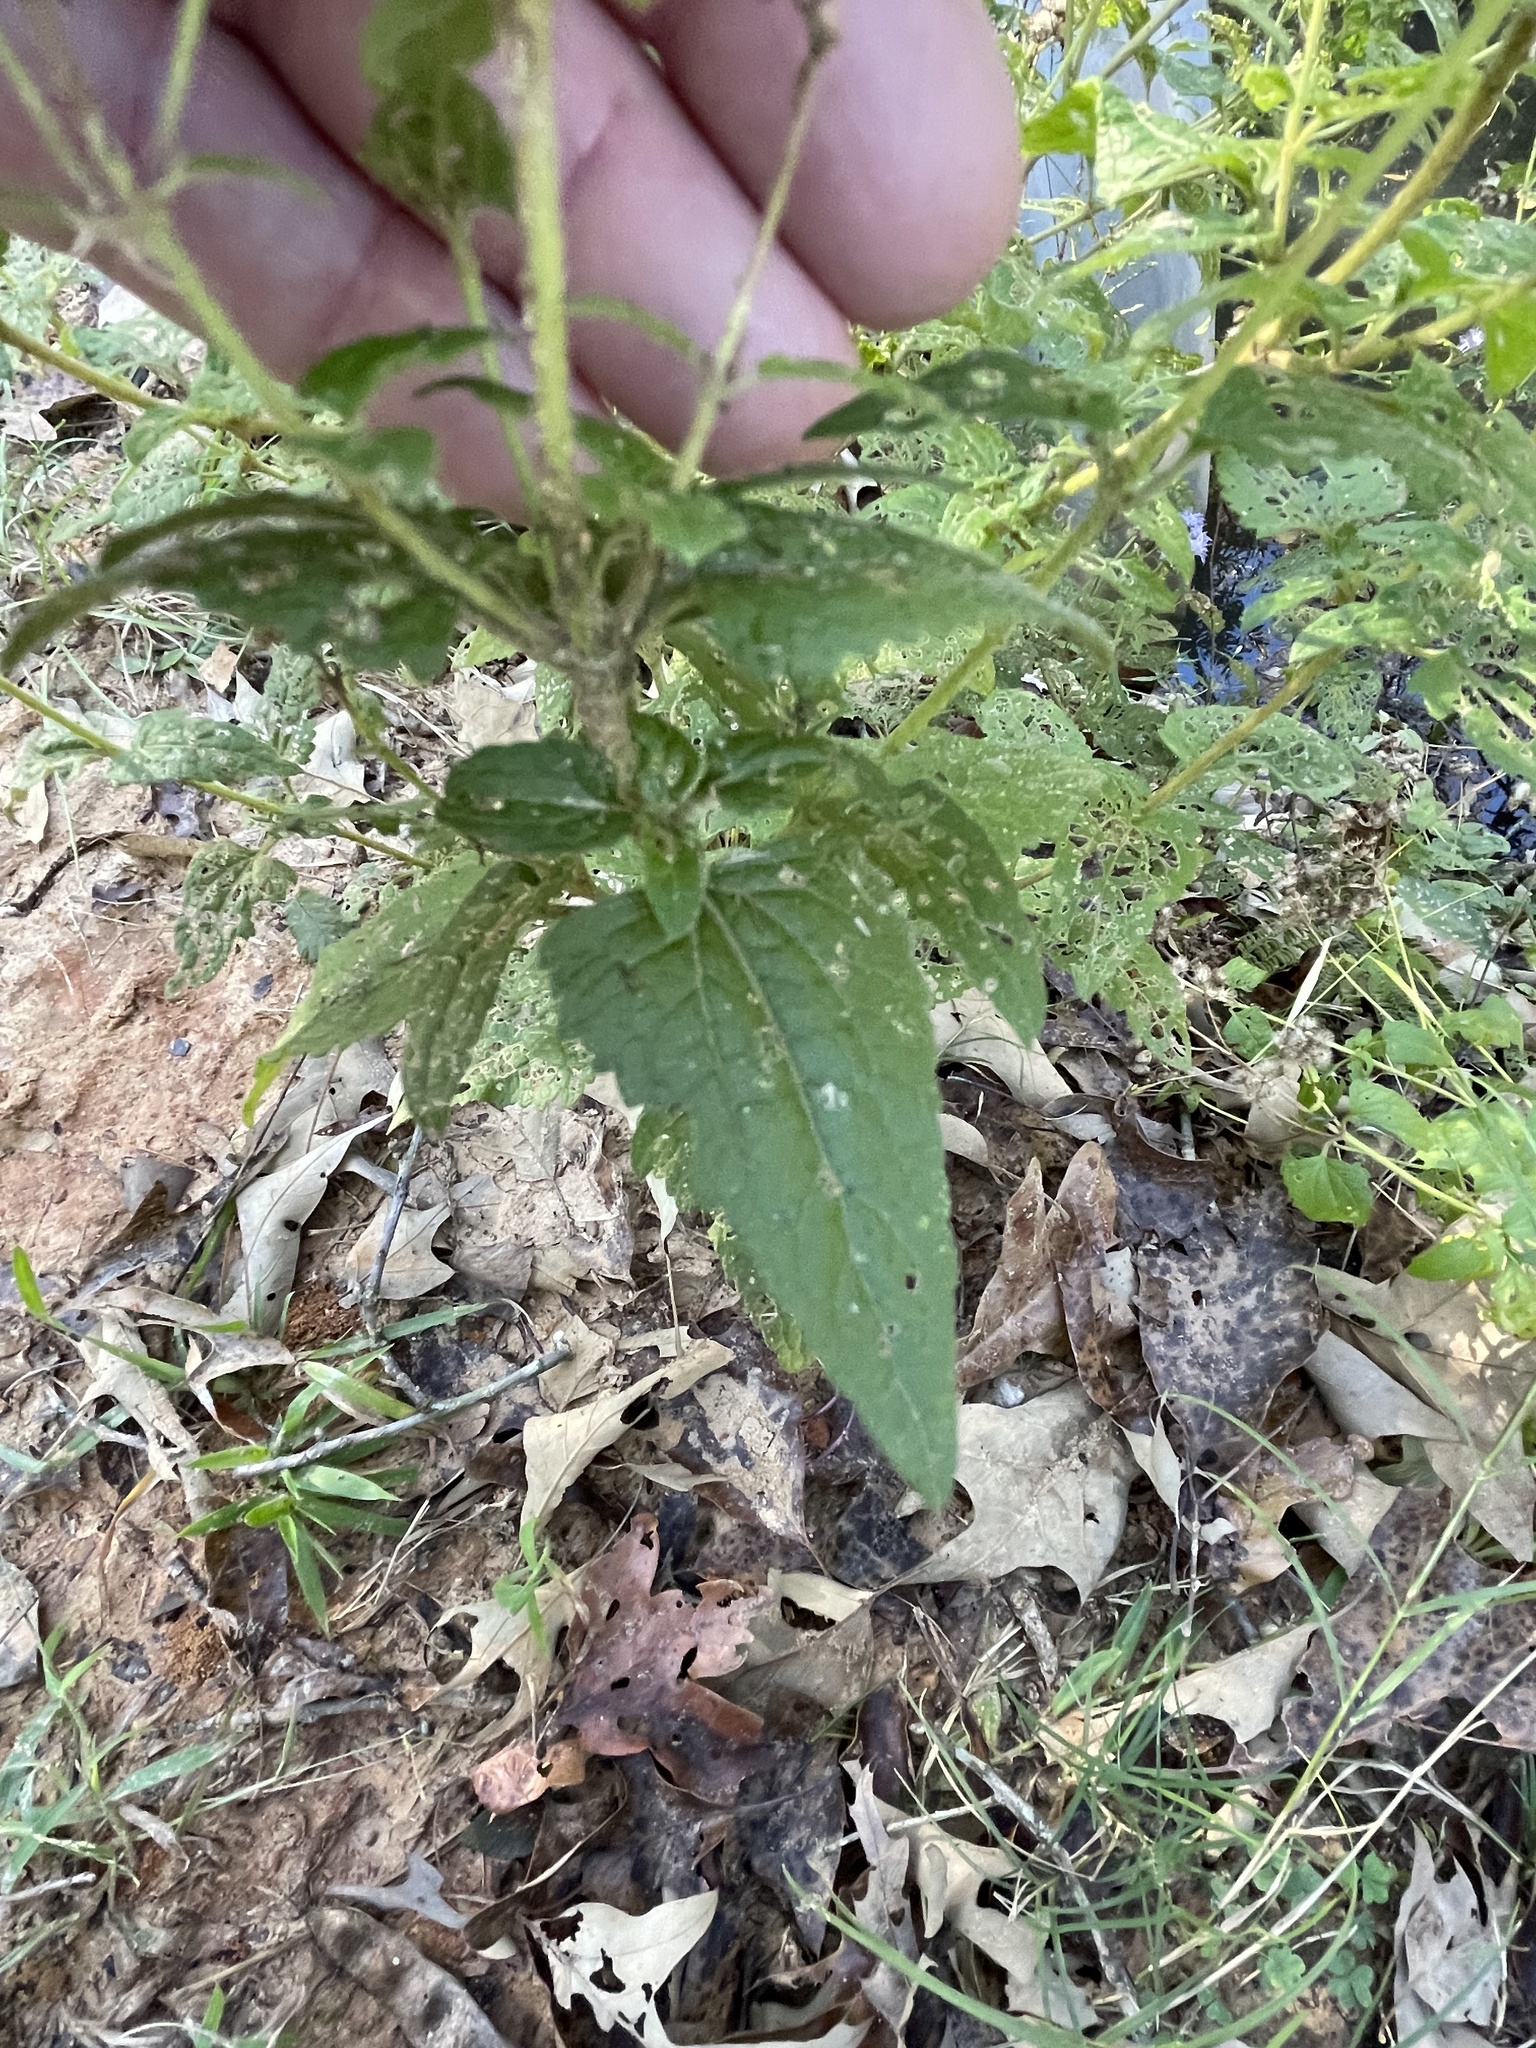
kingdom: Plantae
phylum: Tracheophyta
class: Magnoliopsida
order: Asterales
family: Asteraceae
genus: Conoclinium
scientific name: Conoclinium coelestinum
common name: Blue mistflower
